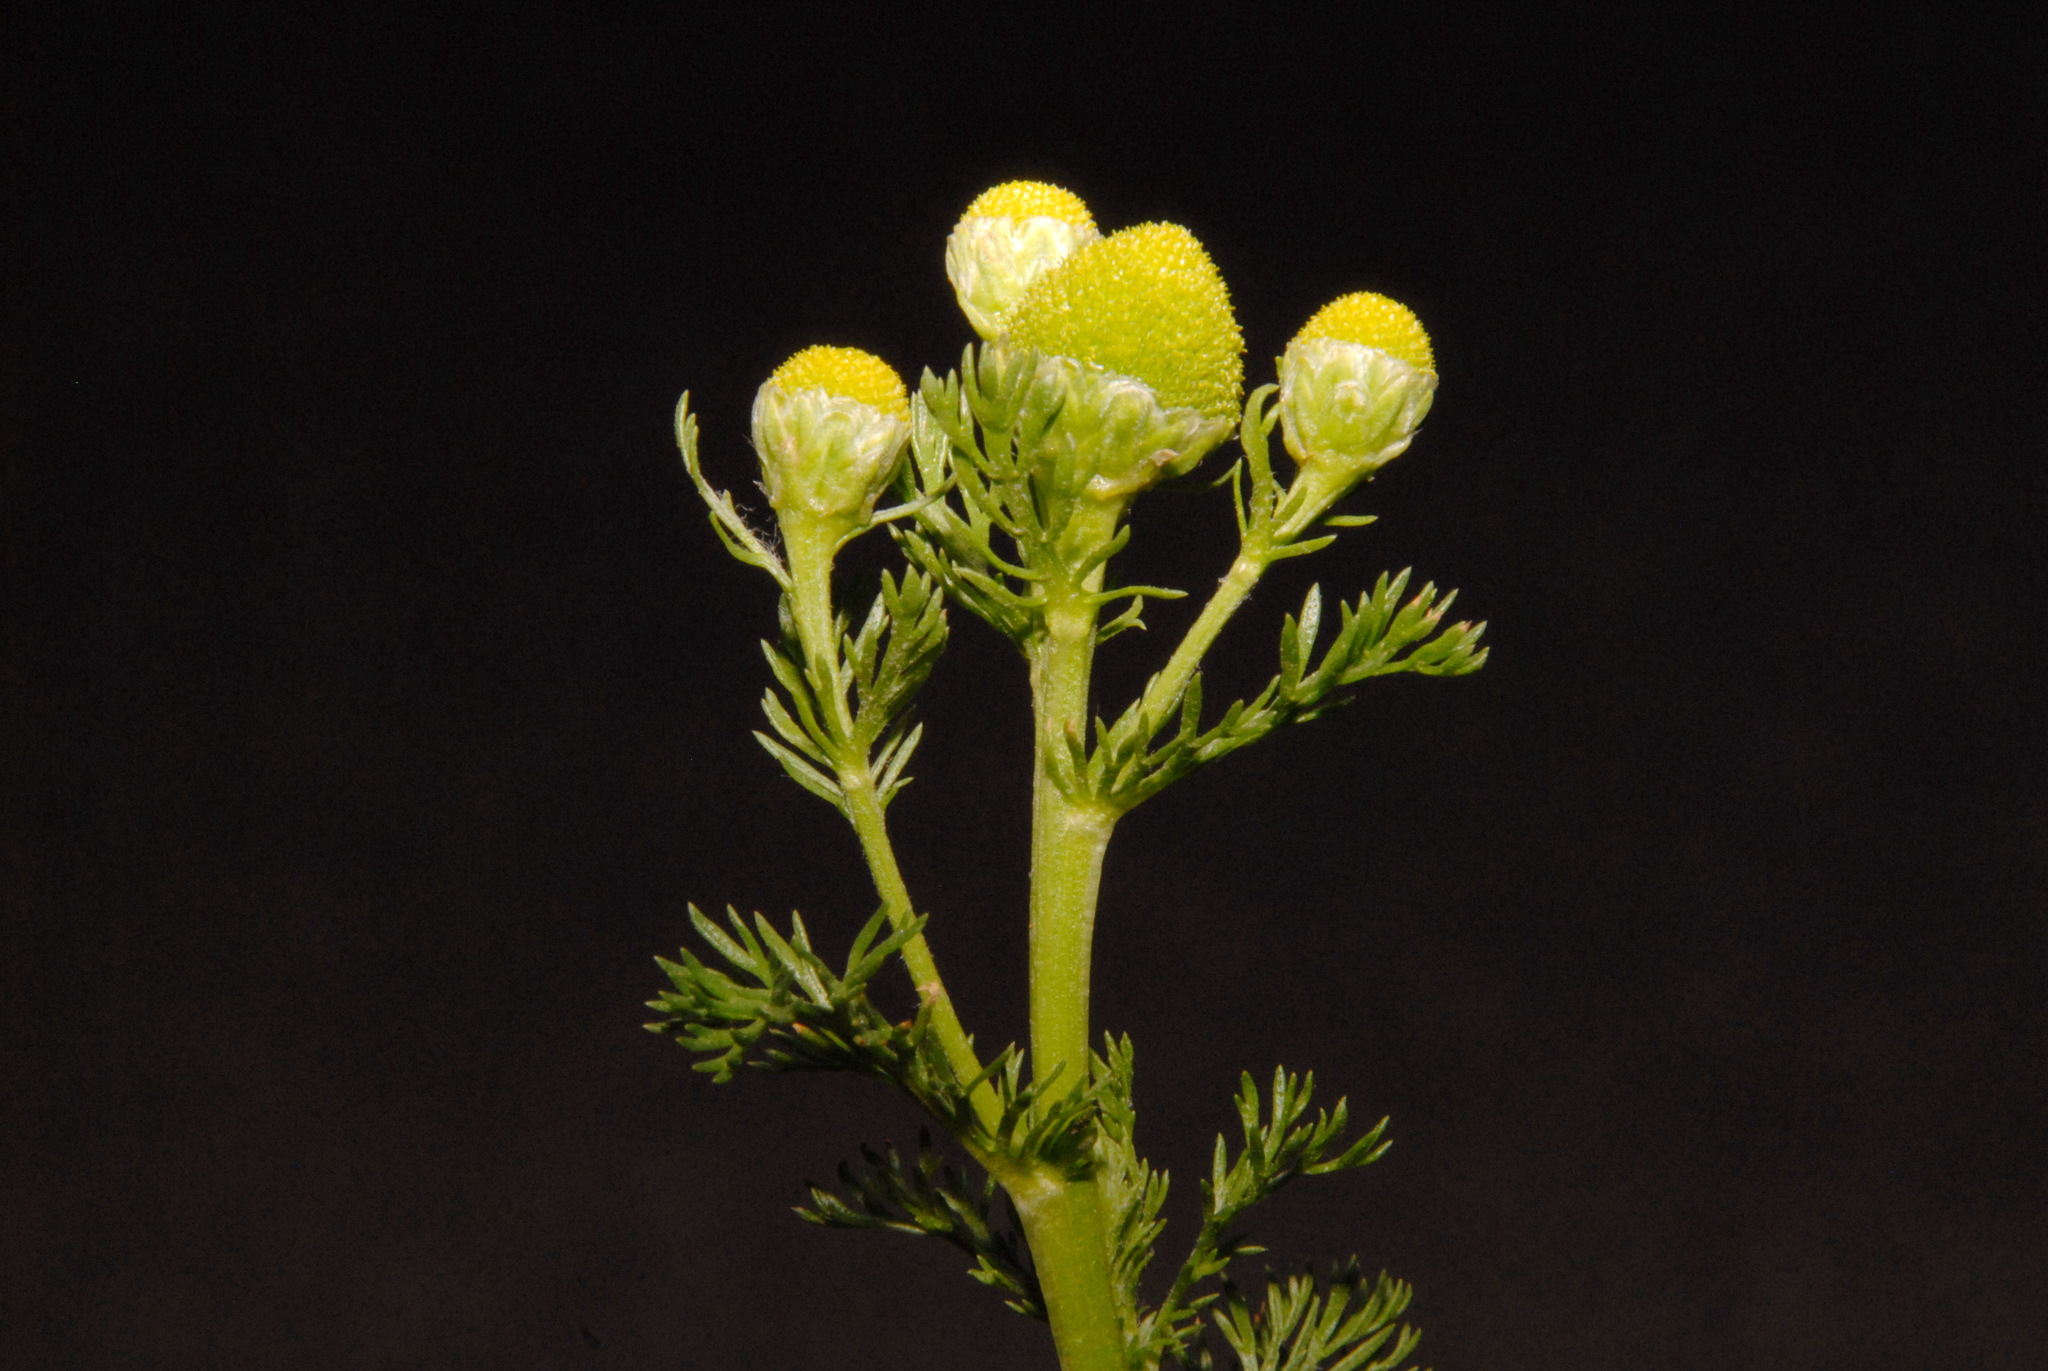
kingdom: Plantae
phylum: Tracheophyta
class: Magnoliopsida
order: Asterales
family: Asteraceae
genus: Matricaria
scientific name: Matricaria discoidea
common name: Disc mayweed
